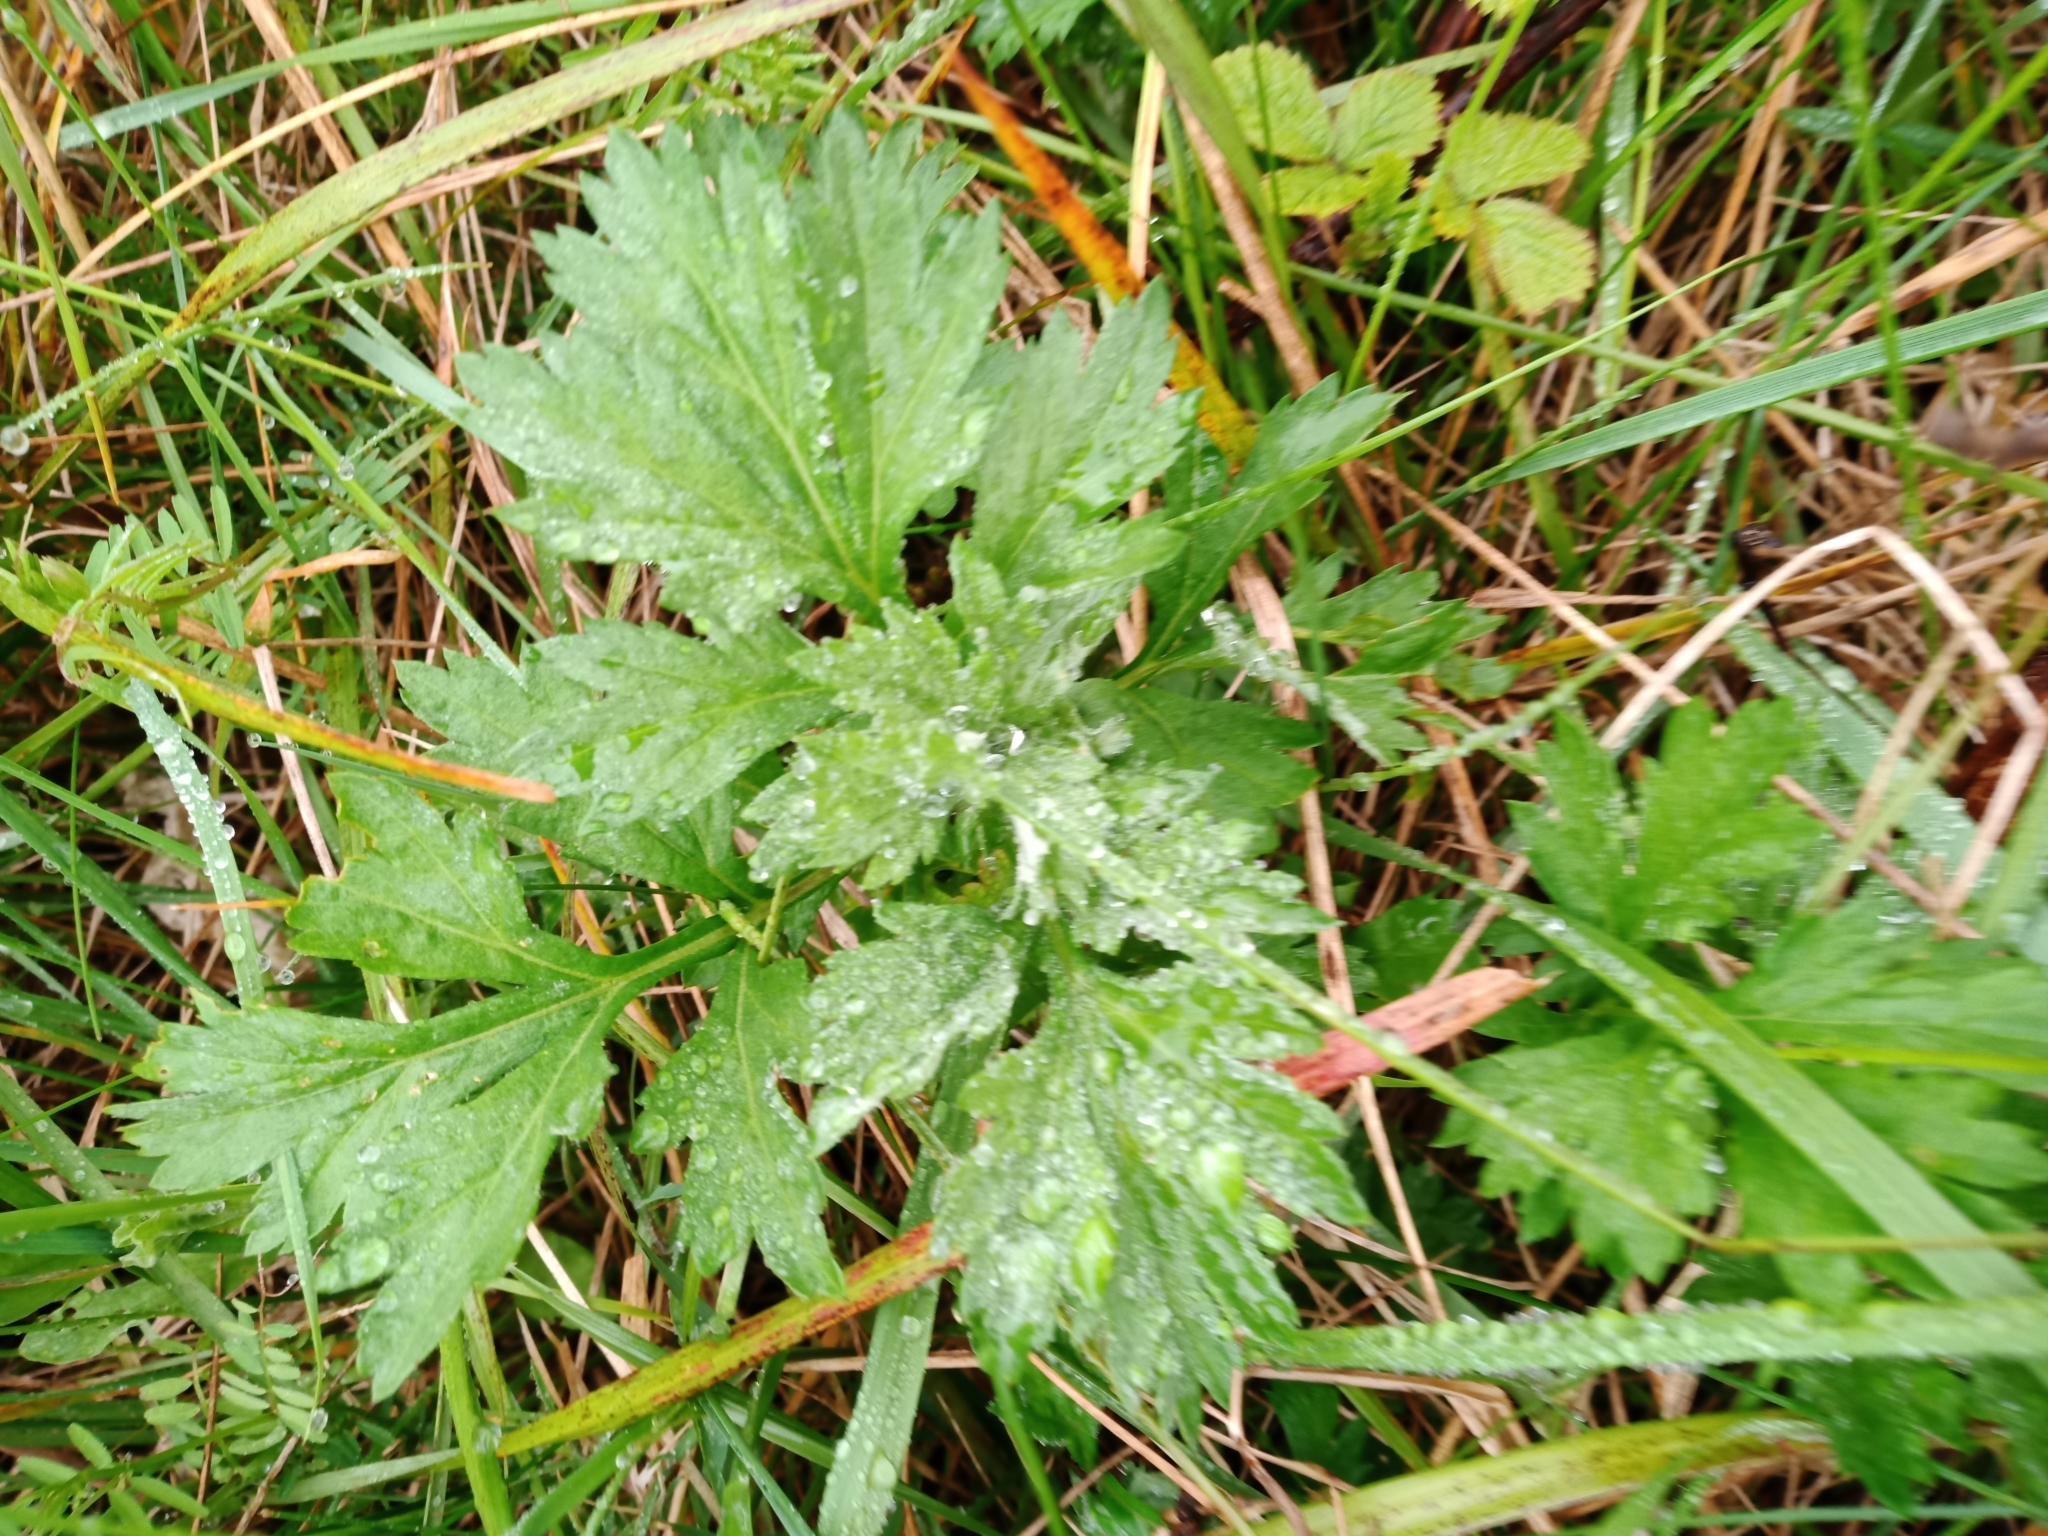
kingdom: Plantae
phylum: Tracheophyta
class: Magnoliopsida
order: Asterales
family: Asteraceae
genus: Artemisia
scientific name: Artemisia vulgaris
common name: Mugwort
